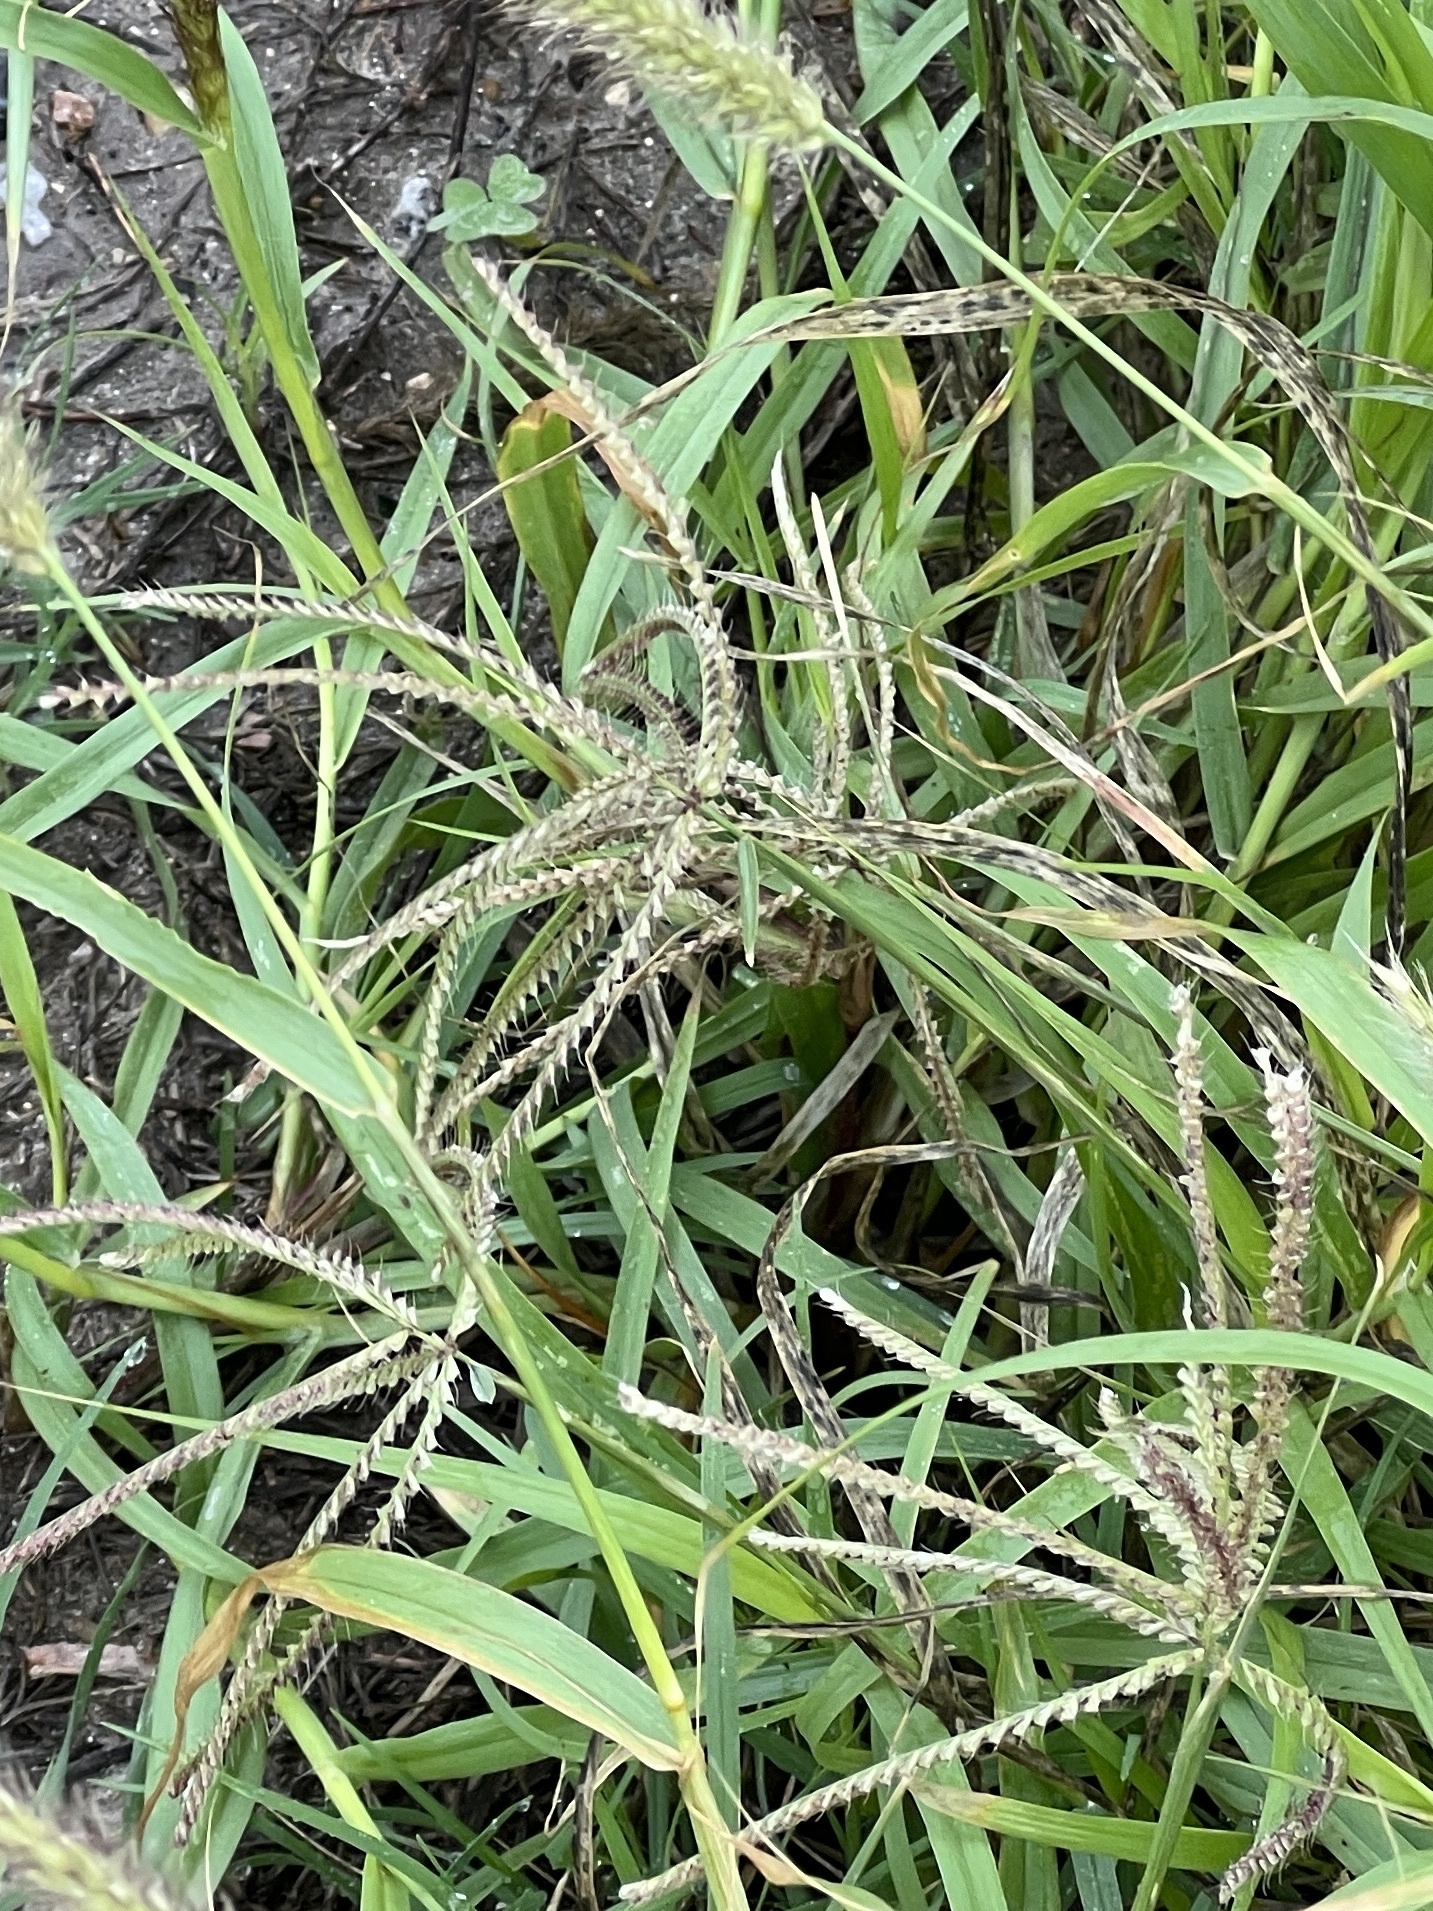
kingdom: Plantae
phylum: Tracheophyta
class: Liliopsida
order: Poales
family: Poaceae
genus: Chloris
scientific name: Chloris subdolichostachya
